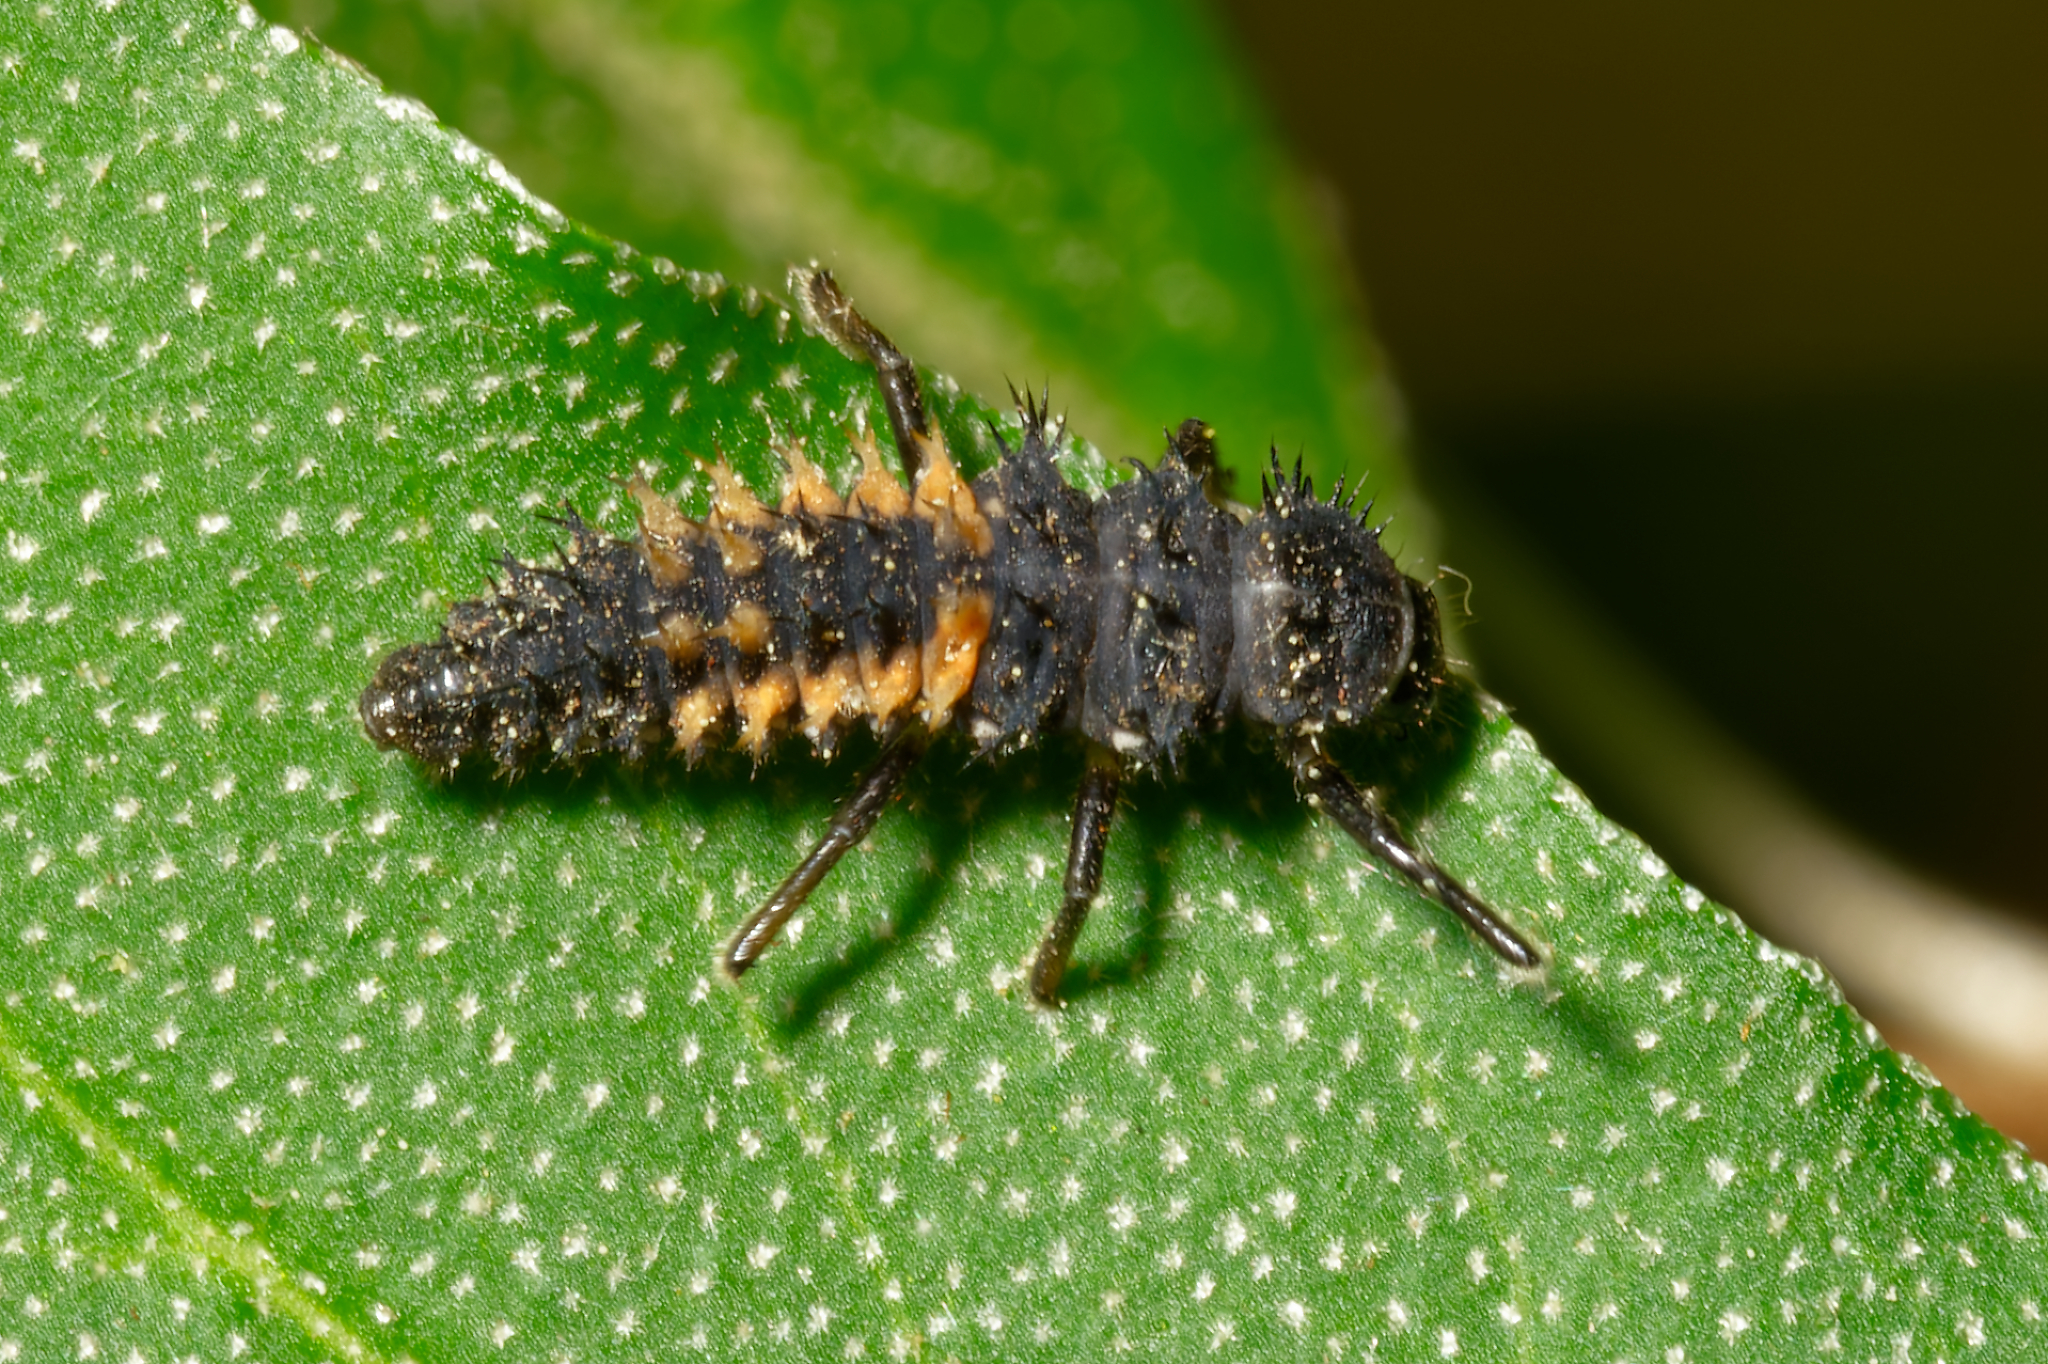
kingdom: Animalia
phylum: Arthropoda
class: Insecta
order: Coleoptera
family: Coccinellidae
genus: Harmonia
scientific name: Harmonia axyridis
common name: Harlequin ladybird
